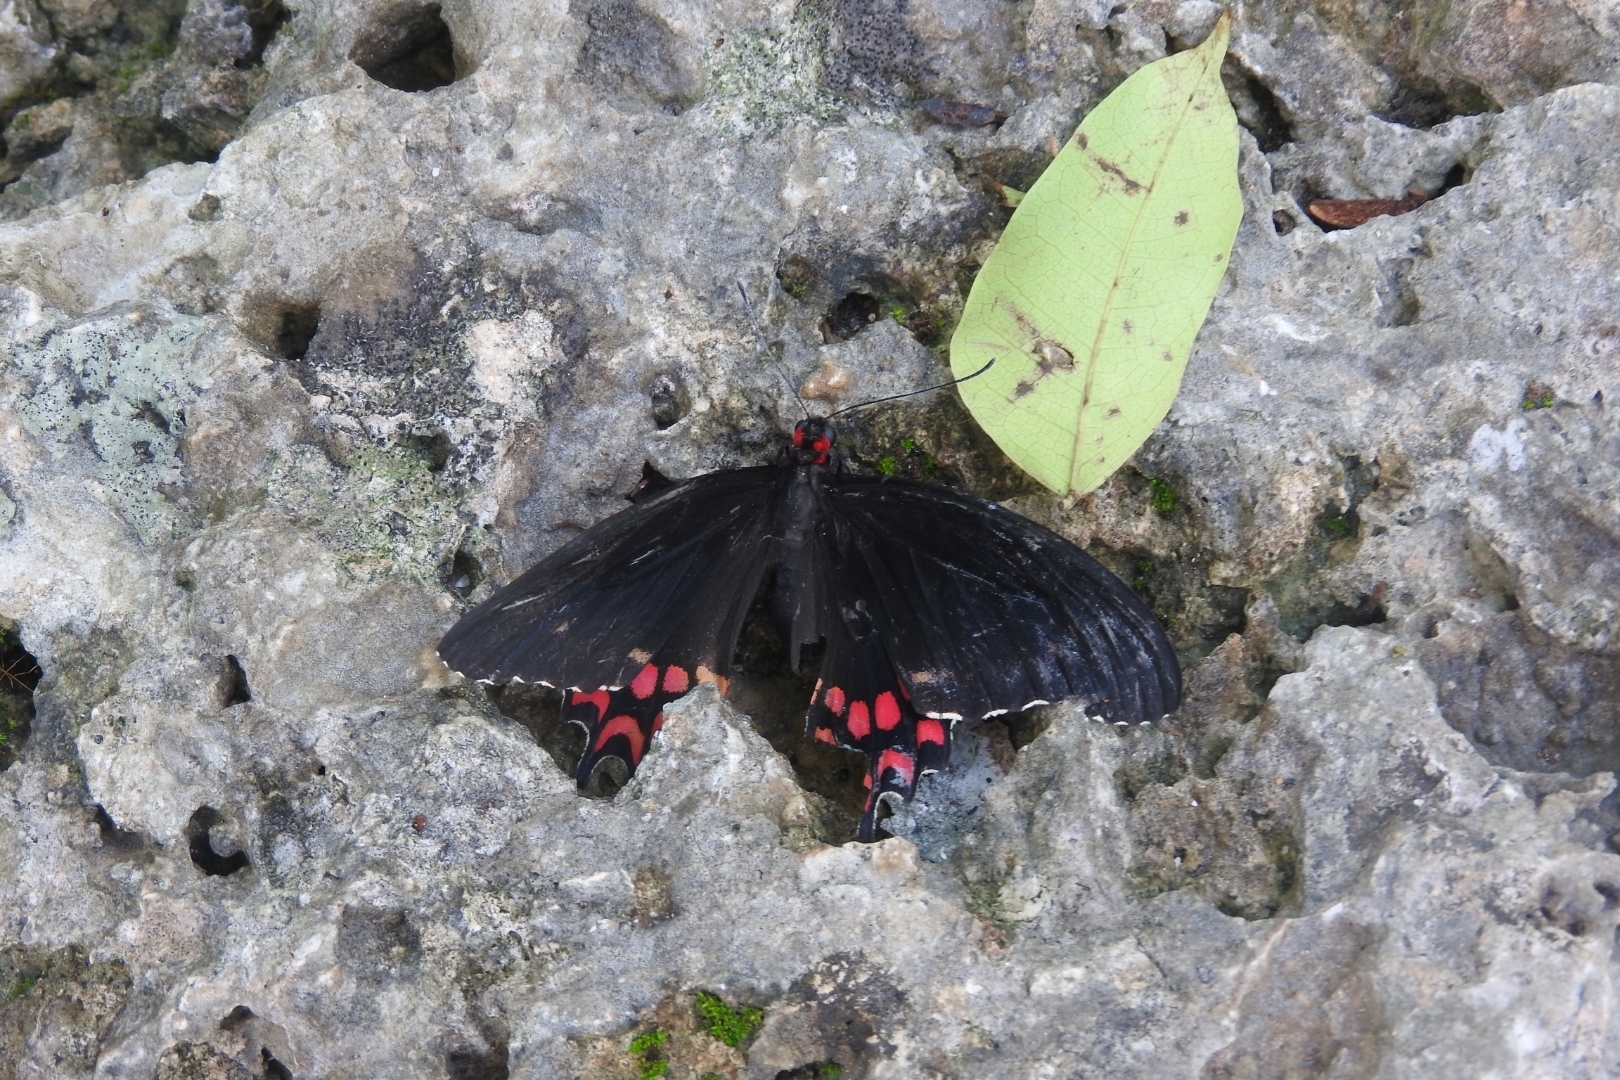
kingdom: Animalia
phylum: Arthropoda
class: Insecta
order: Lepidoptera
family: Papilionidae
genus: Parides
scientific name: Parides photinus
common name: Pink-spotted cattleheart
